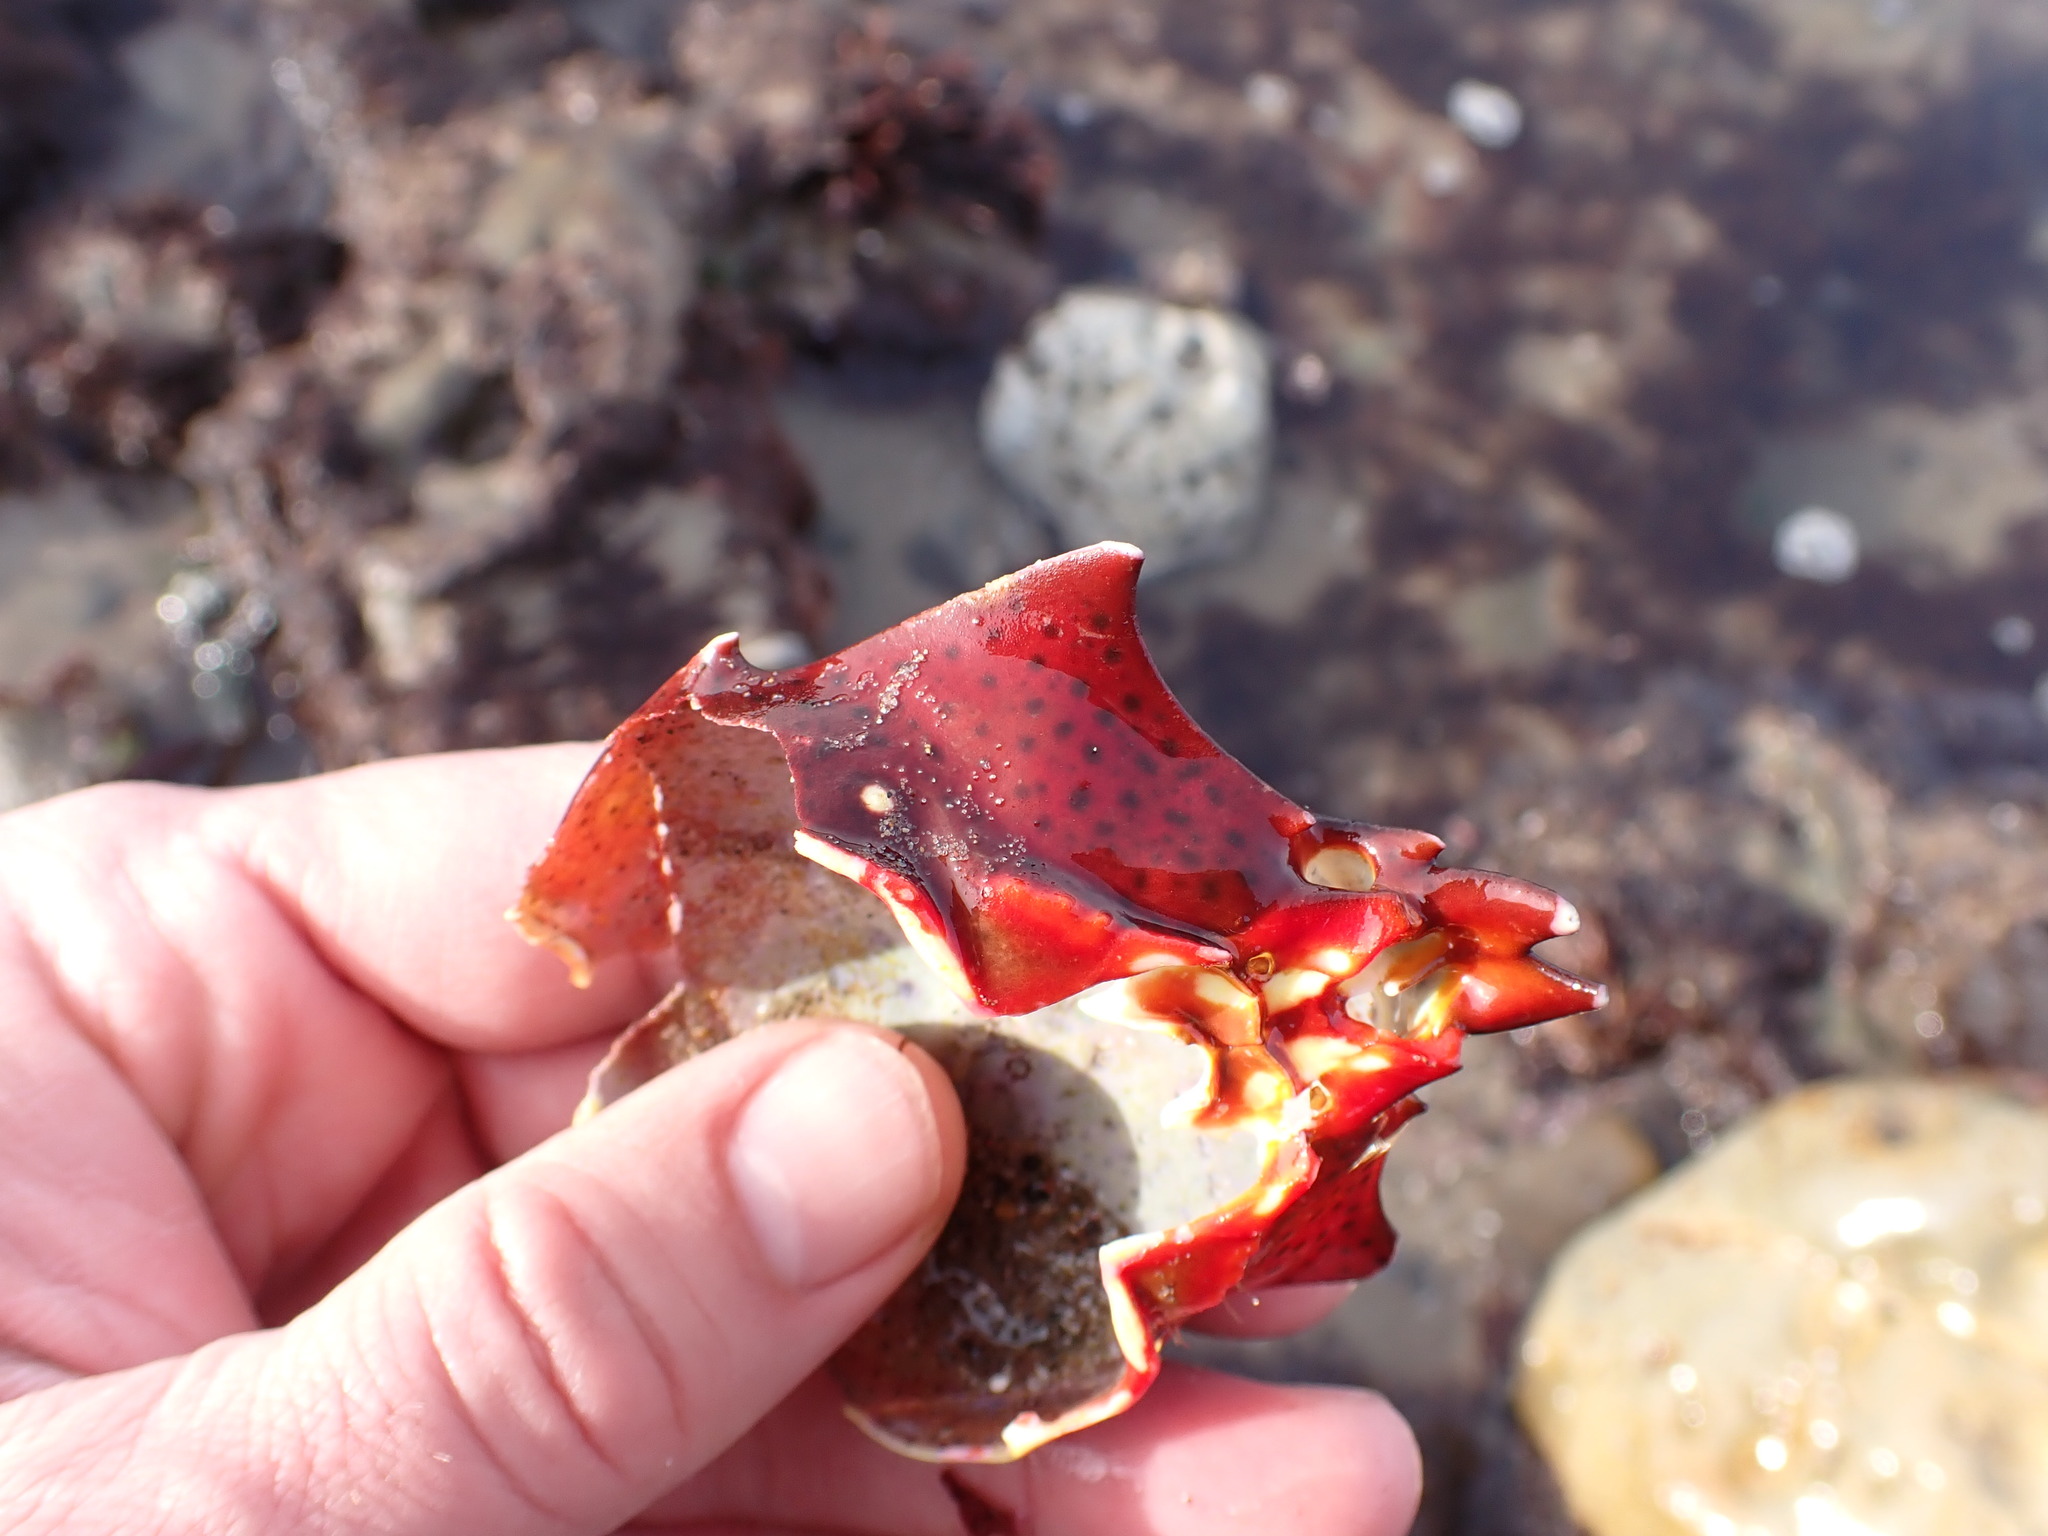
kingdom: Animalia
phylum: Arthropoda
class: Malacostraca
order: Decapoda
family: Epialtidae
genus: Pugettia
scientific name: Pugettia producta
